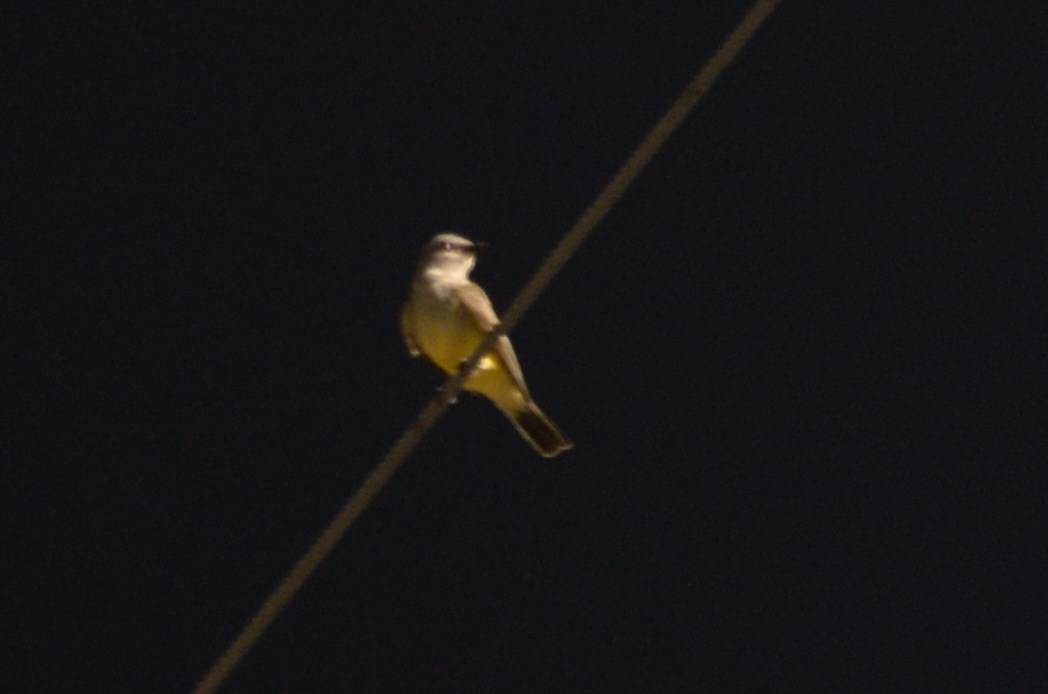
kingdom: Animalia
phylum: Chordata
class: Aves
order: Passeriformes
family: Tyrannidae
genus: Tyrannus
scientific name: Tyrannus verticalis
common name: Western kingbird
